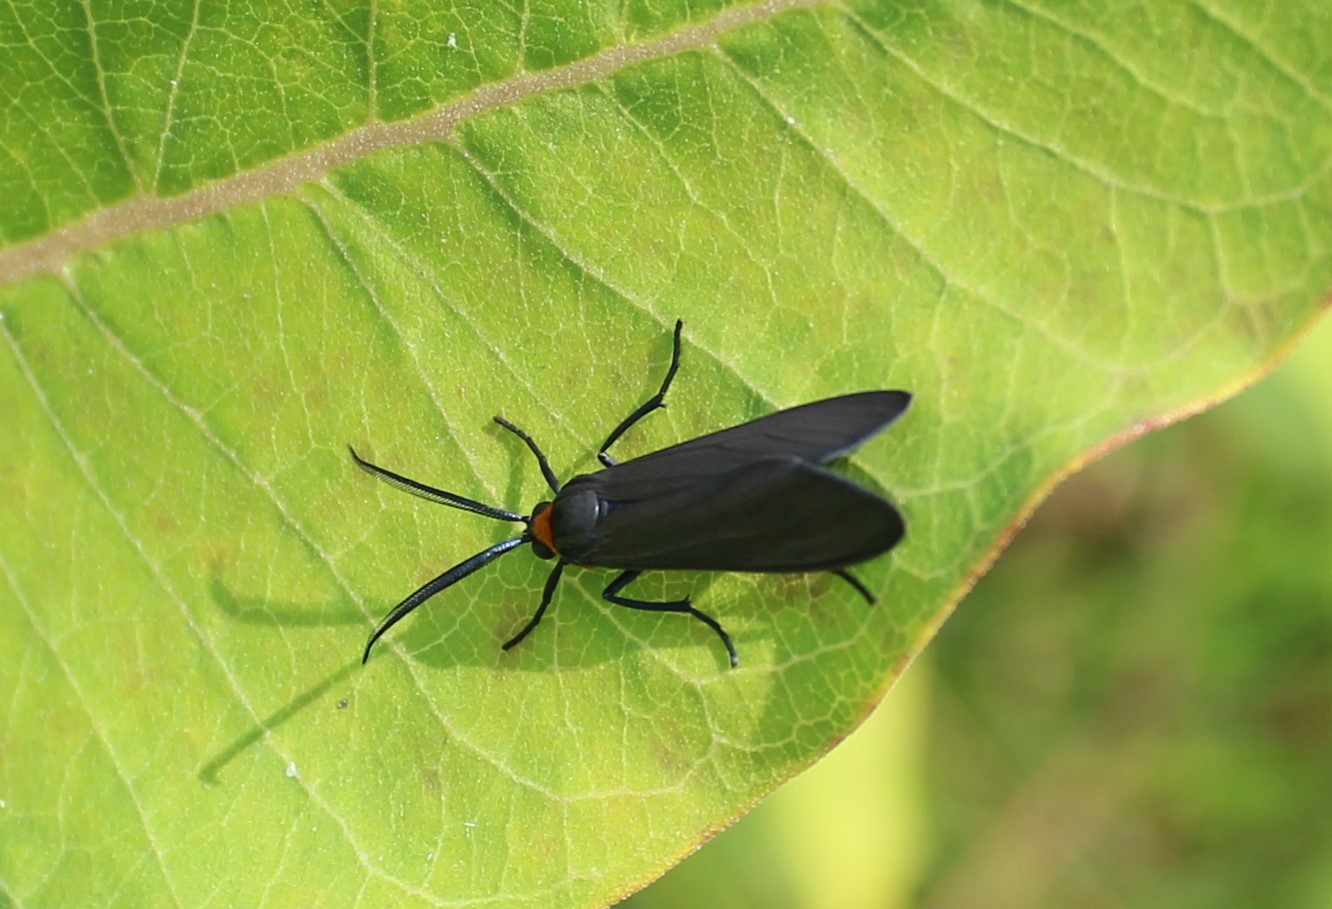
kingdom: Animalia
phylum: Arthropoda
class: Insecta
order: Lepidoptera
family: Erebidae
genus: Cisseps
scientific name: Cisseps fulvicollis
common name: Yellow-collared scape moth
